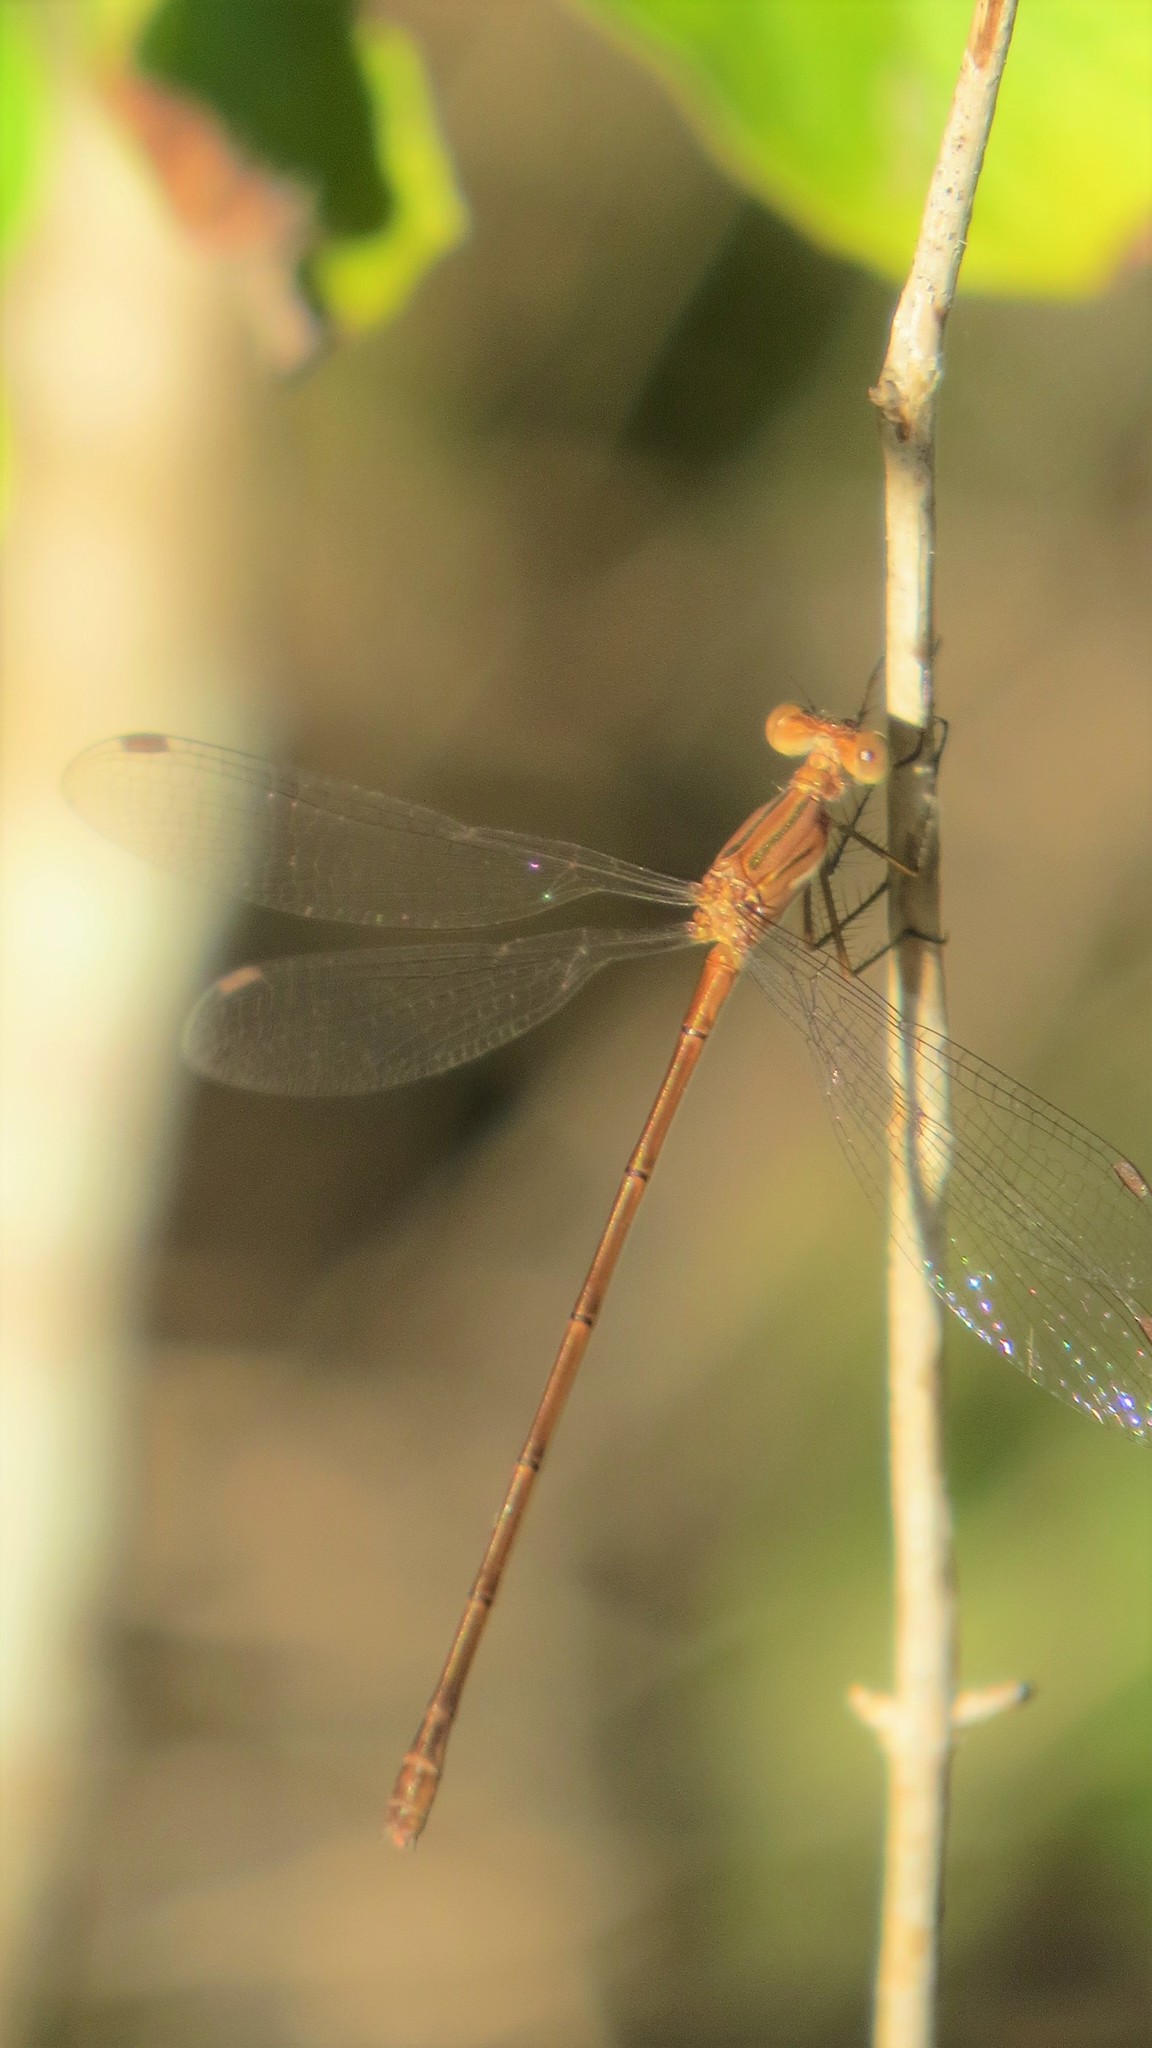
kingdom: Animalia
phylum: Arthropoda
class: Insecta
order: Odonata
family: Lestidae
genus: Lestes
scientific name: Lestes forficula
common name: Rainpool spreadwing
